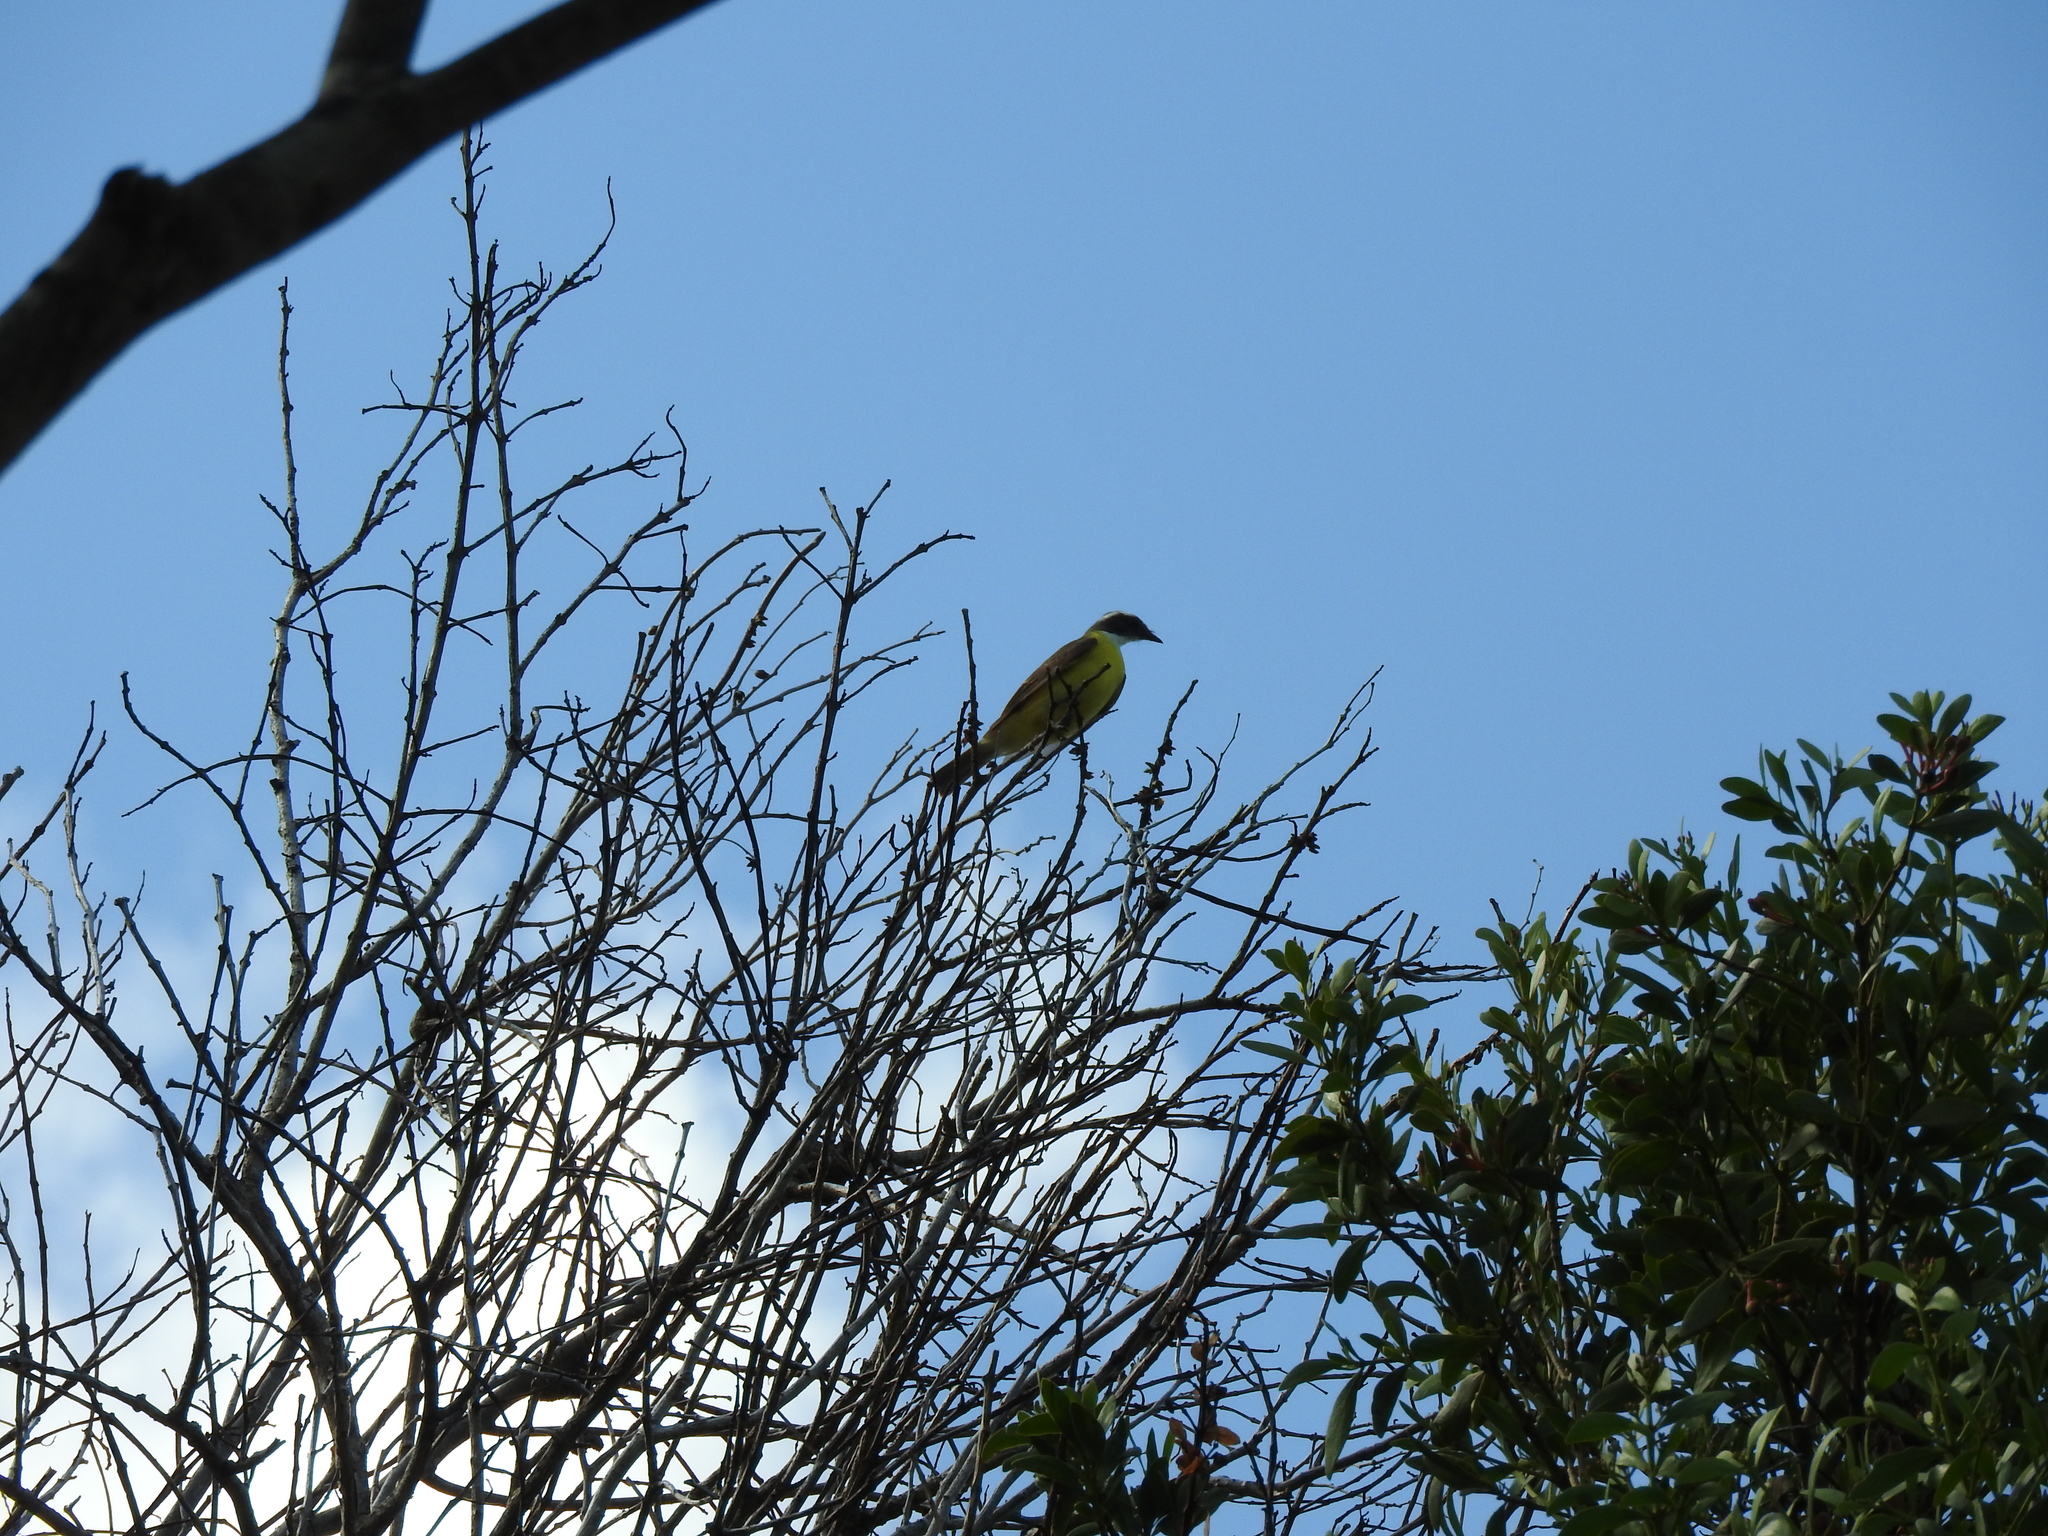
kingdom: Animalia
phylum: Chordata
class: Aves
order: Passeriformes
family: Tyrannidae
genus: Myiozetetes
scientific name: Myiozetetes similis
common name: Social flycatcher
